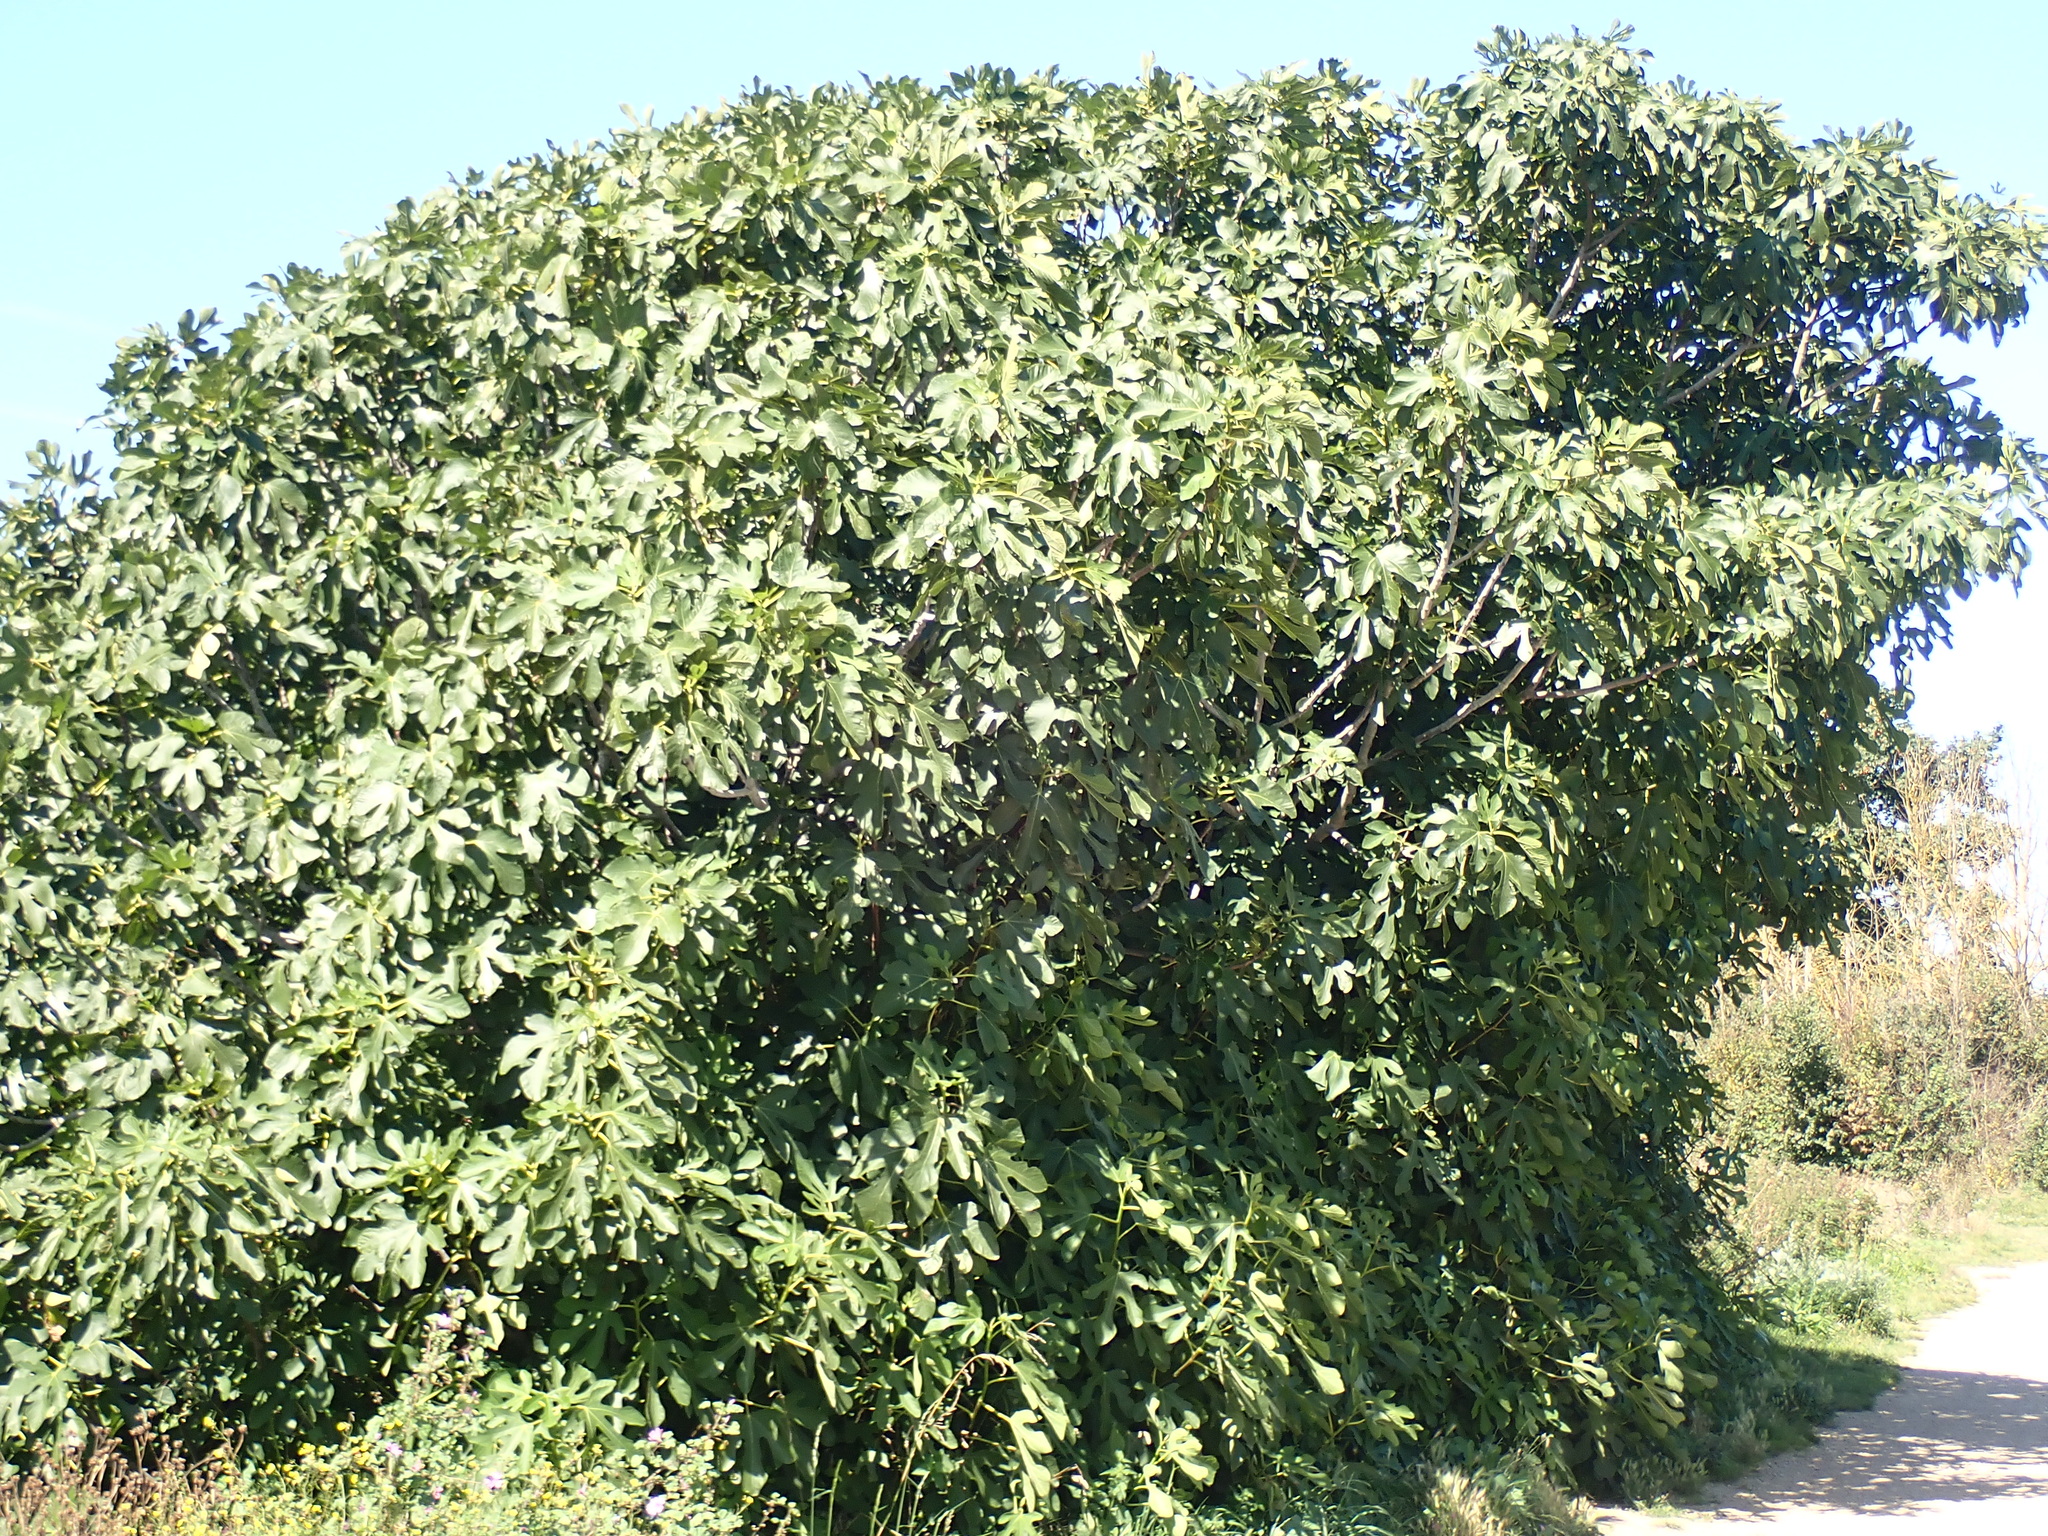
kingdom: Plantae
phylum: Tracheophyta
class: Magnoliopsida
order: Rosales
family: Moraceae
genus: Ficus
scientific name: Ficus carica
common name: Fig
